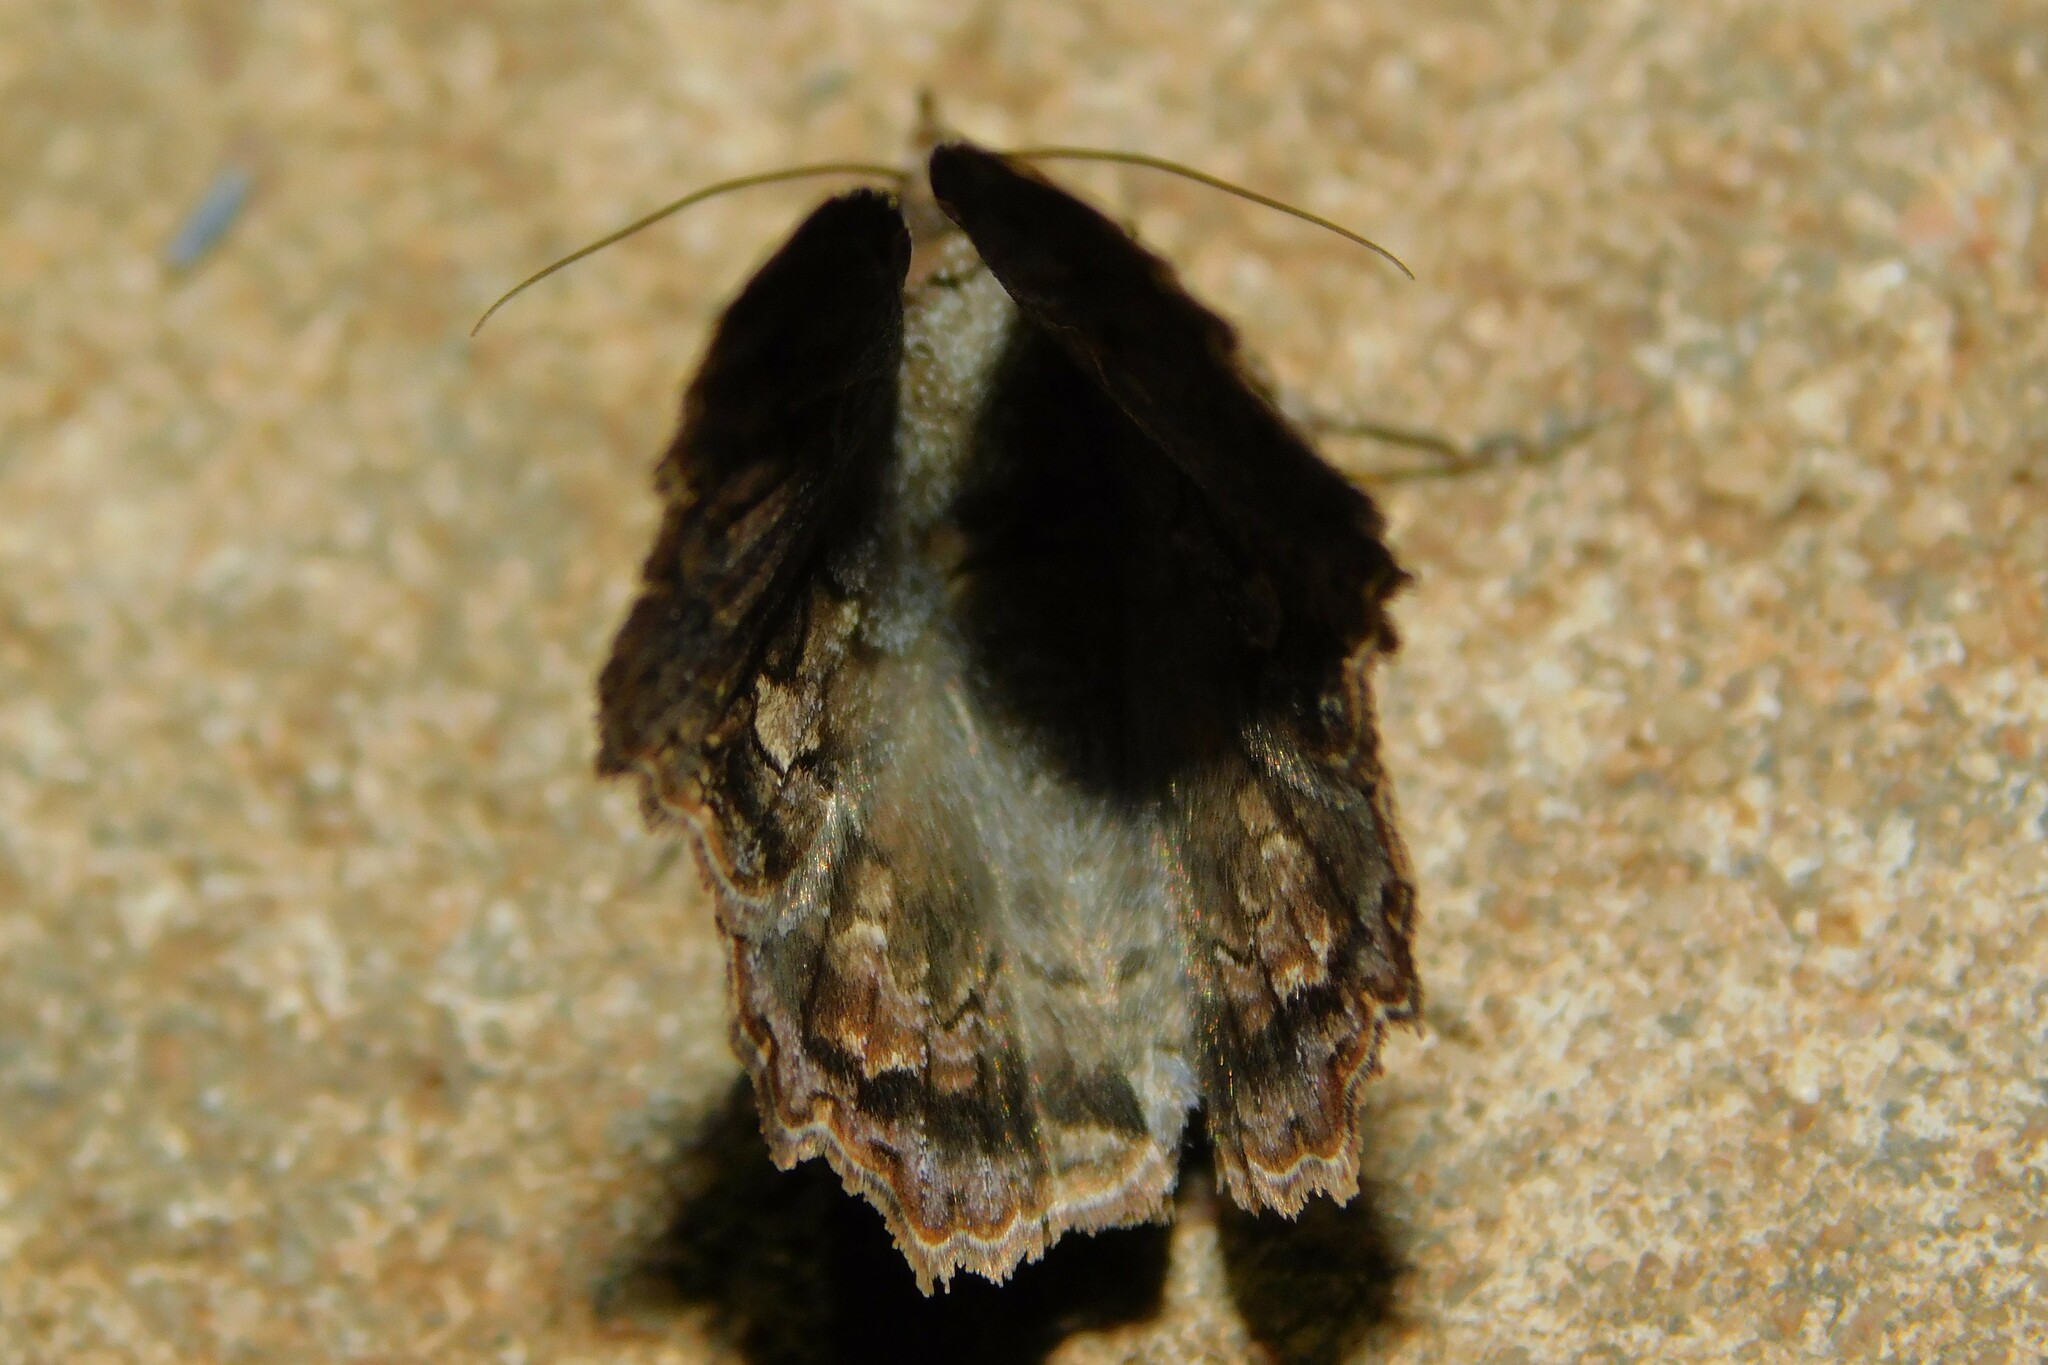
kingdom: Animalia
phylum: Arthropoda
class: Insecta
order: Lepidoptera
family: Erebidae
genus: Lacera
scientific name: Lacera alope
